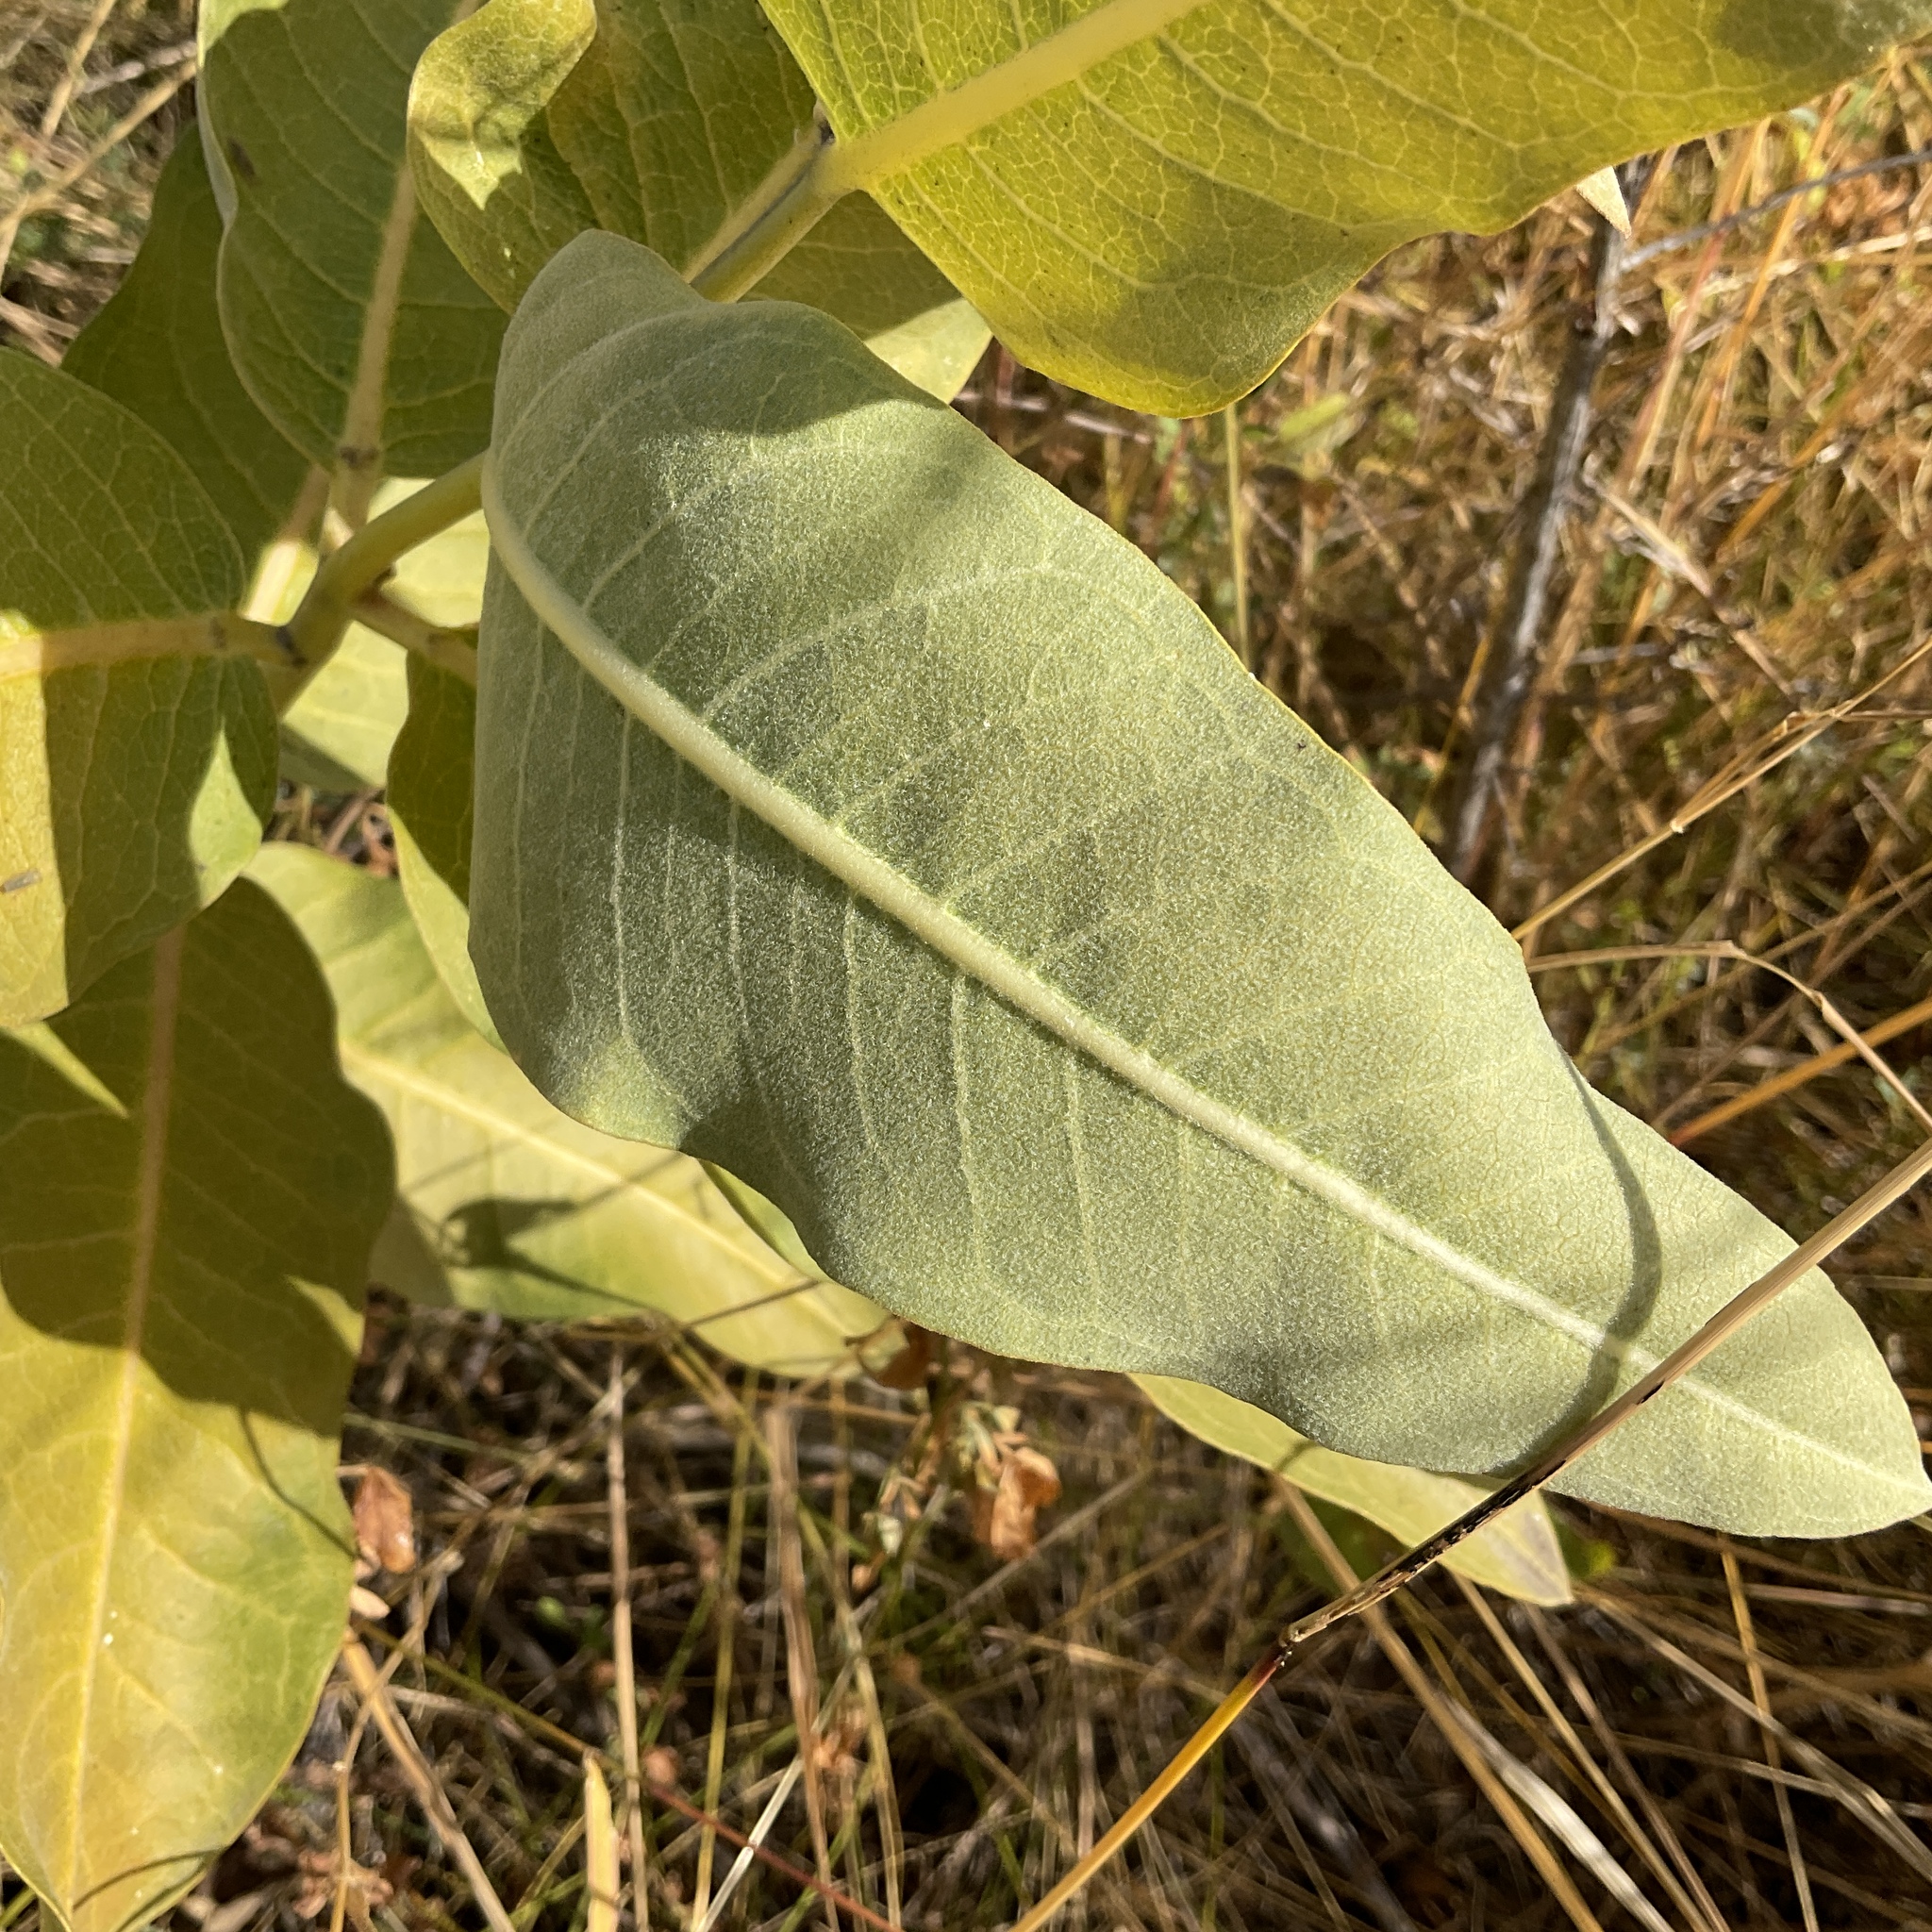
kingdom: Plantae
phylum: Tracheophyta
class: Magnoliopsida
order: Gentianales
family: Apocynaceae
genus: Asclepias
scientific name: Asclepias speciosa
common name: Showy milkweed
